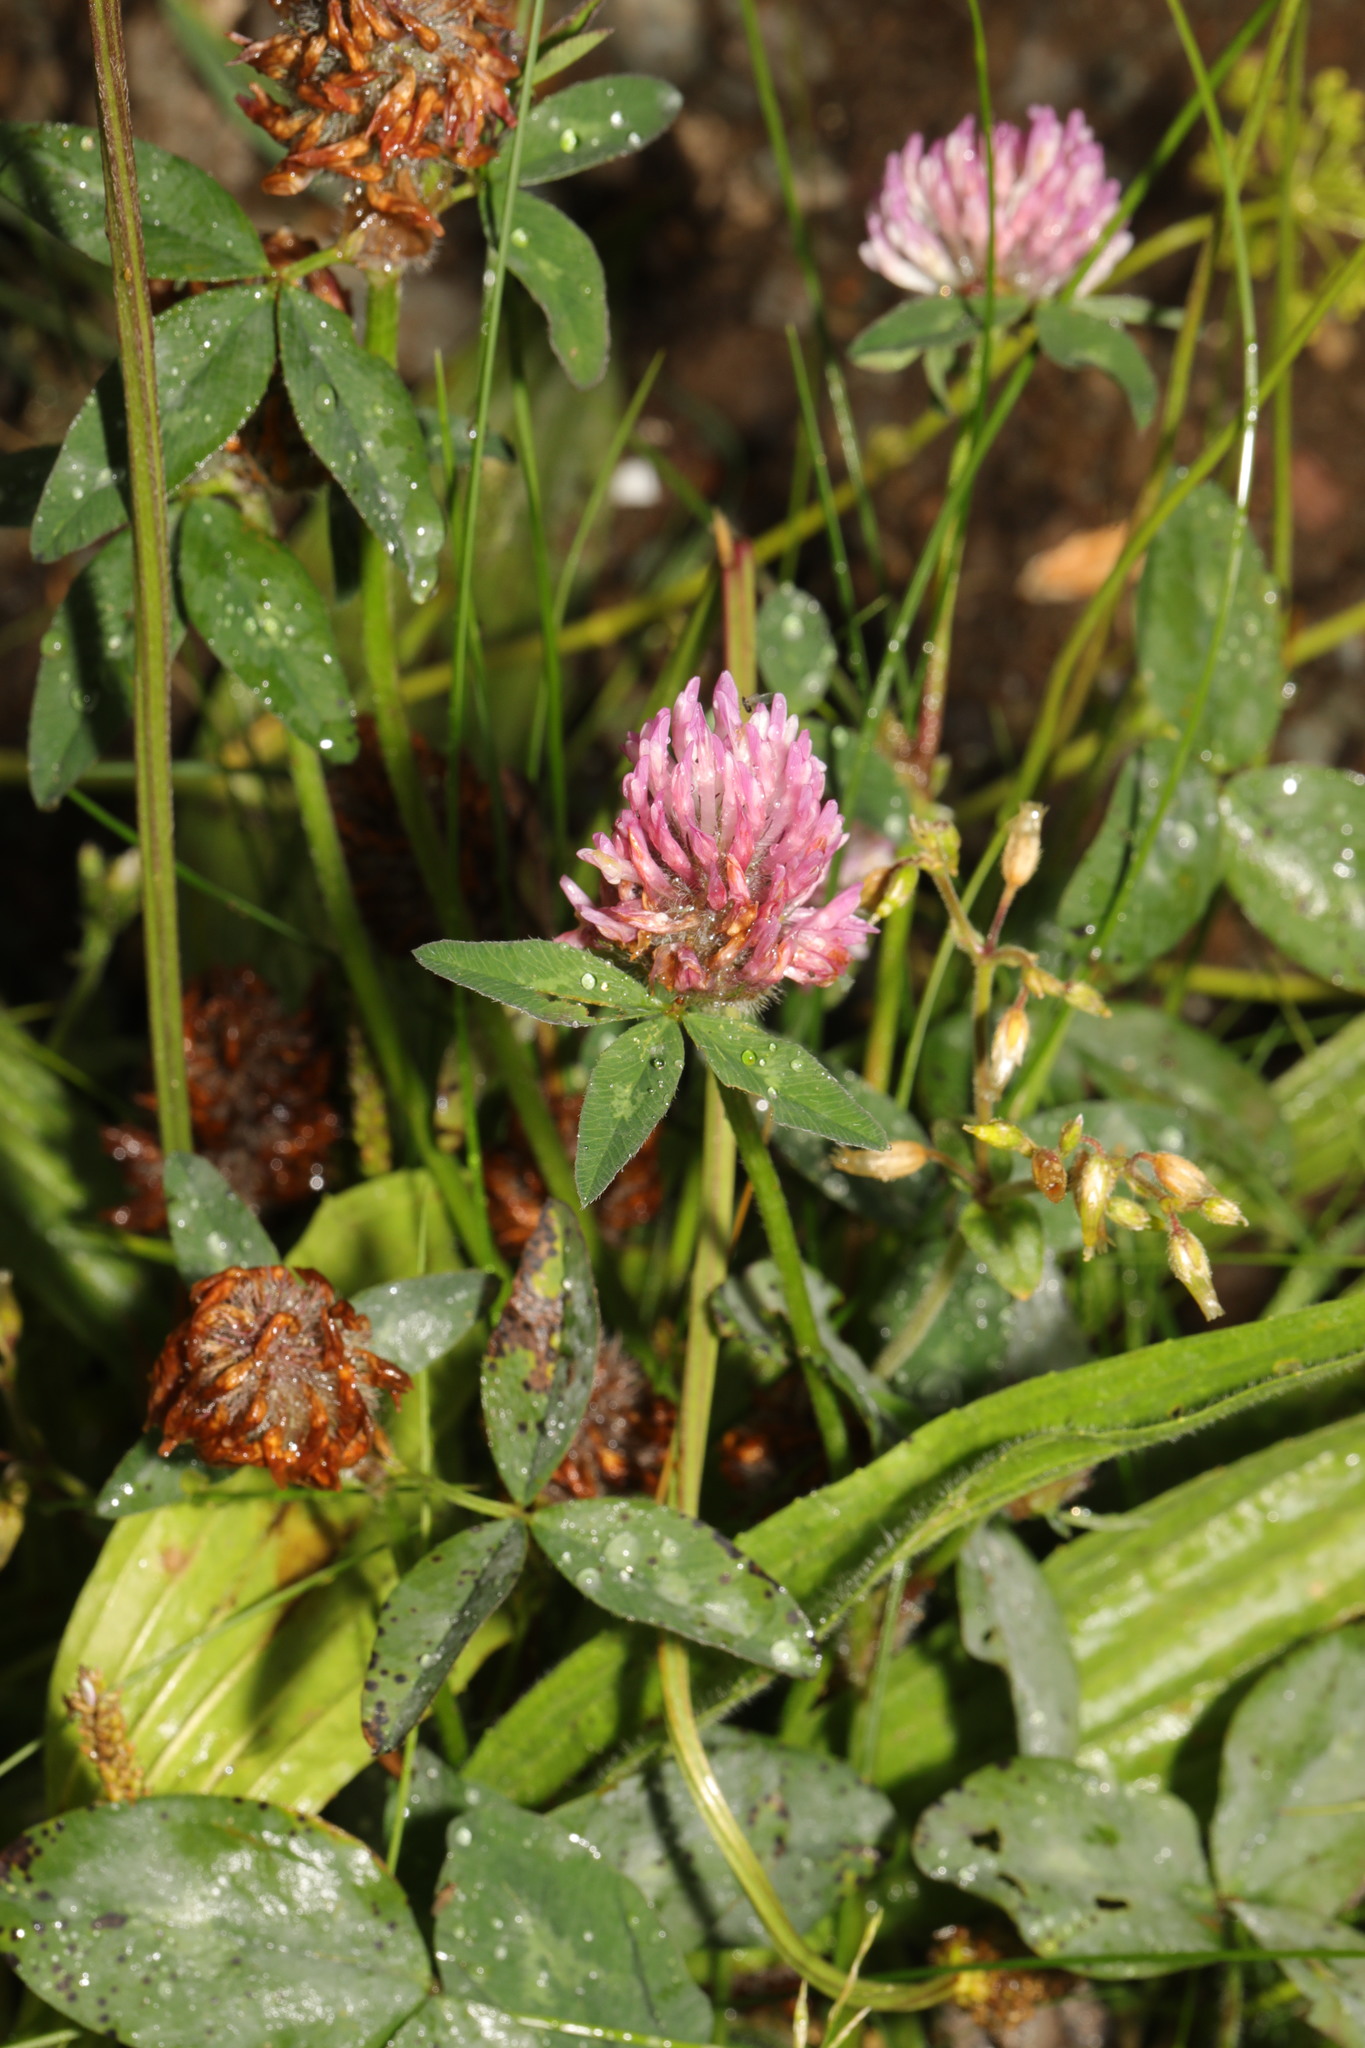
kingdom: Plantae
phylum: Tracheophyta
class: Magnoliopsida
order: Fabales
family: Fabaceae
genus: Trifolium
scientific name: Trifolium pratense
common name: Red clover
